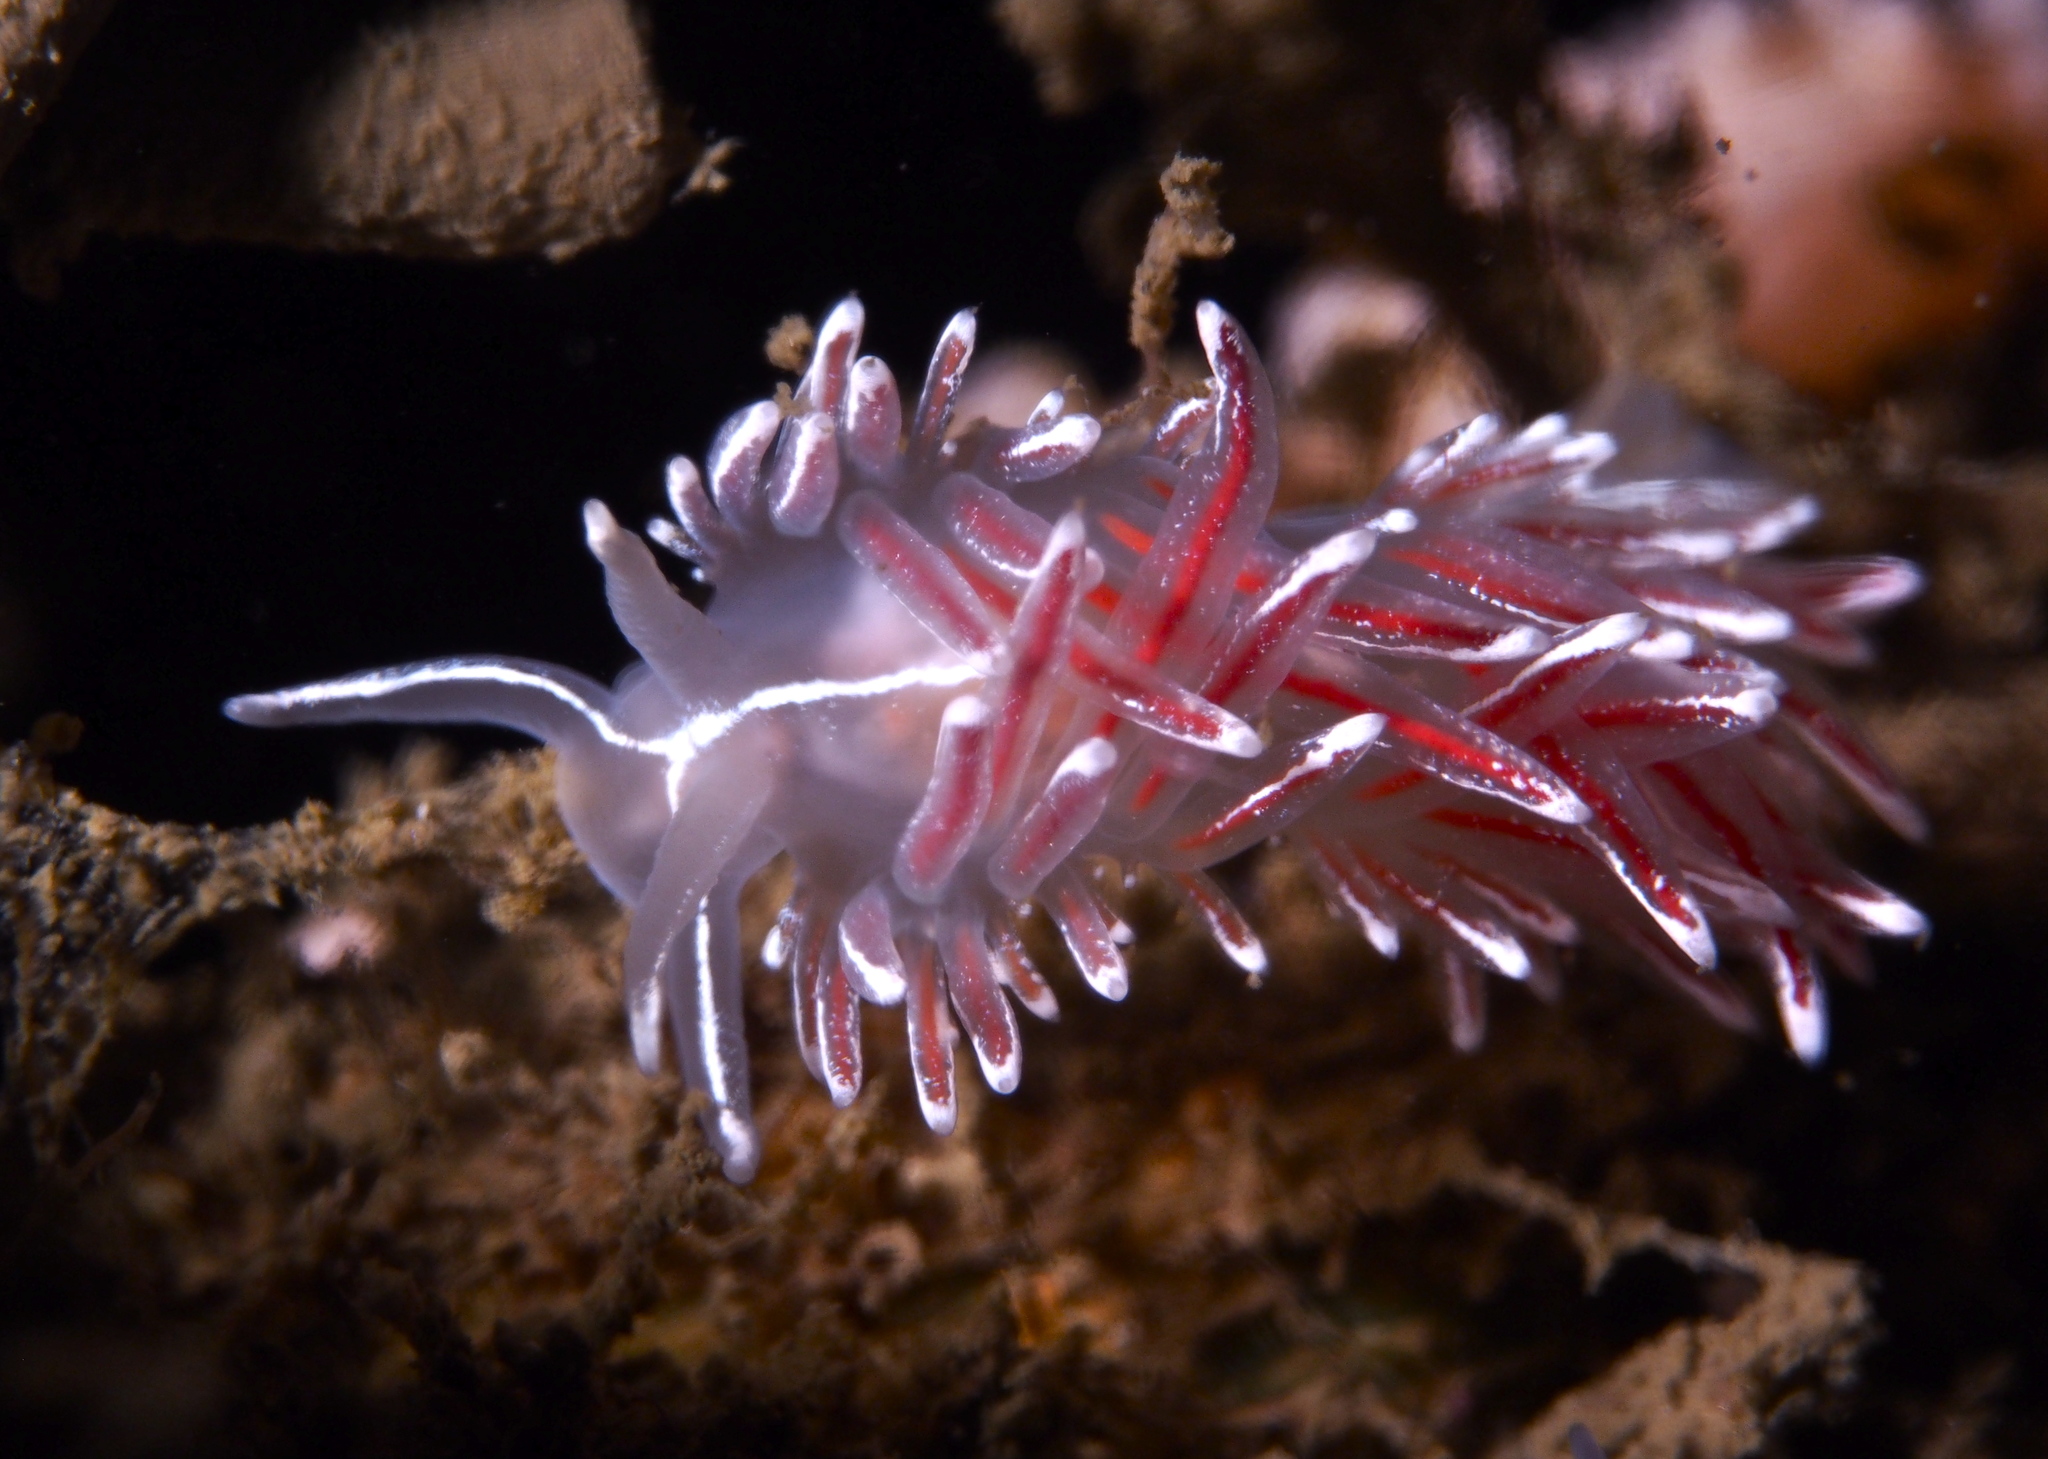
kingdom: Animalia
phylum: Mollusca
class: Gastropoda
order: Nudibranchia
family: Coryphellidae
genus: Coryphella
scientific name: Coryphella lineata
